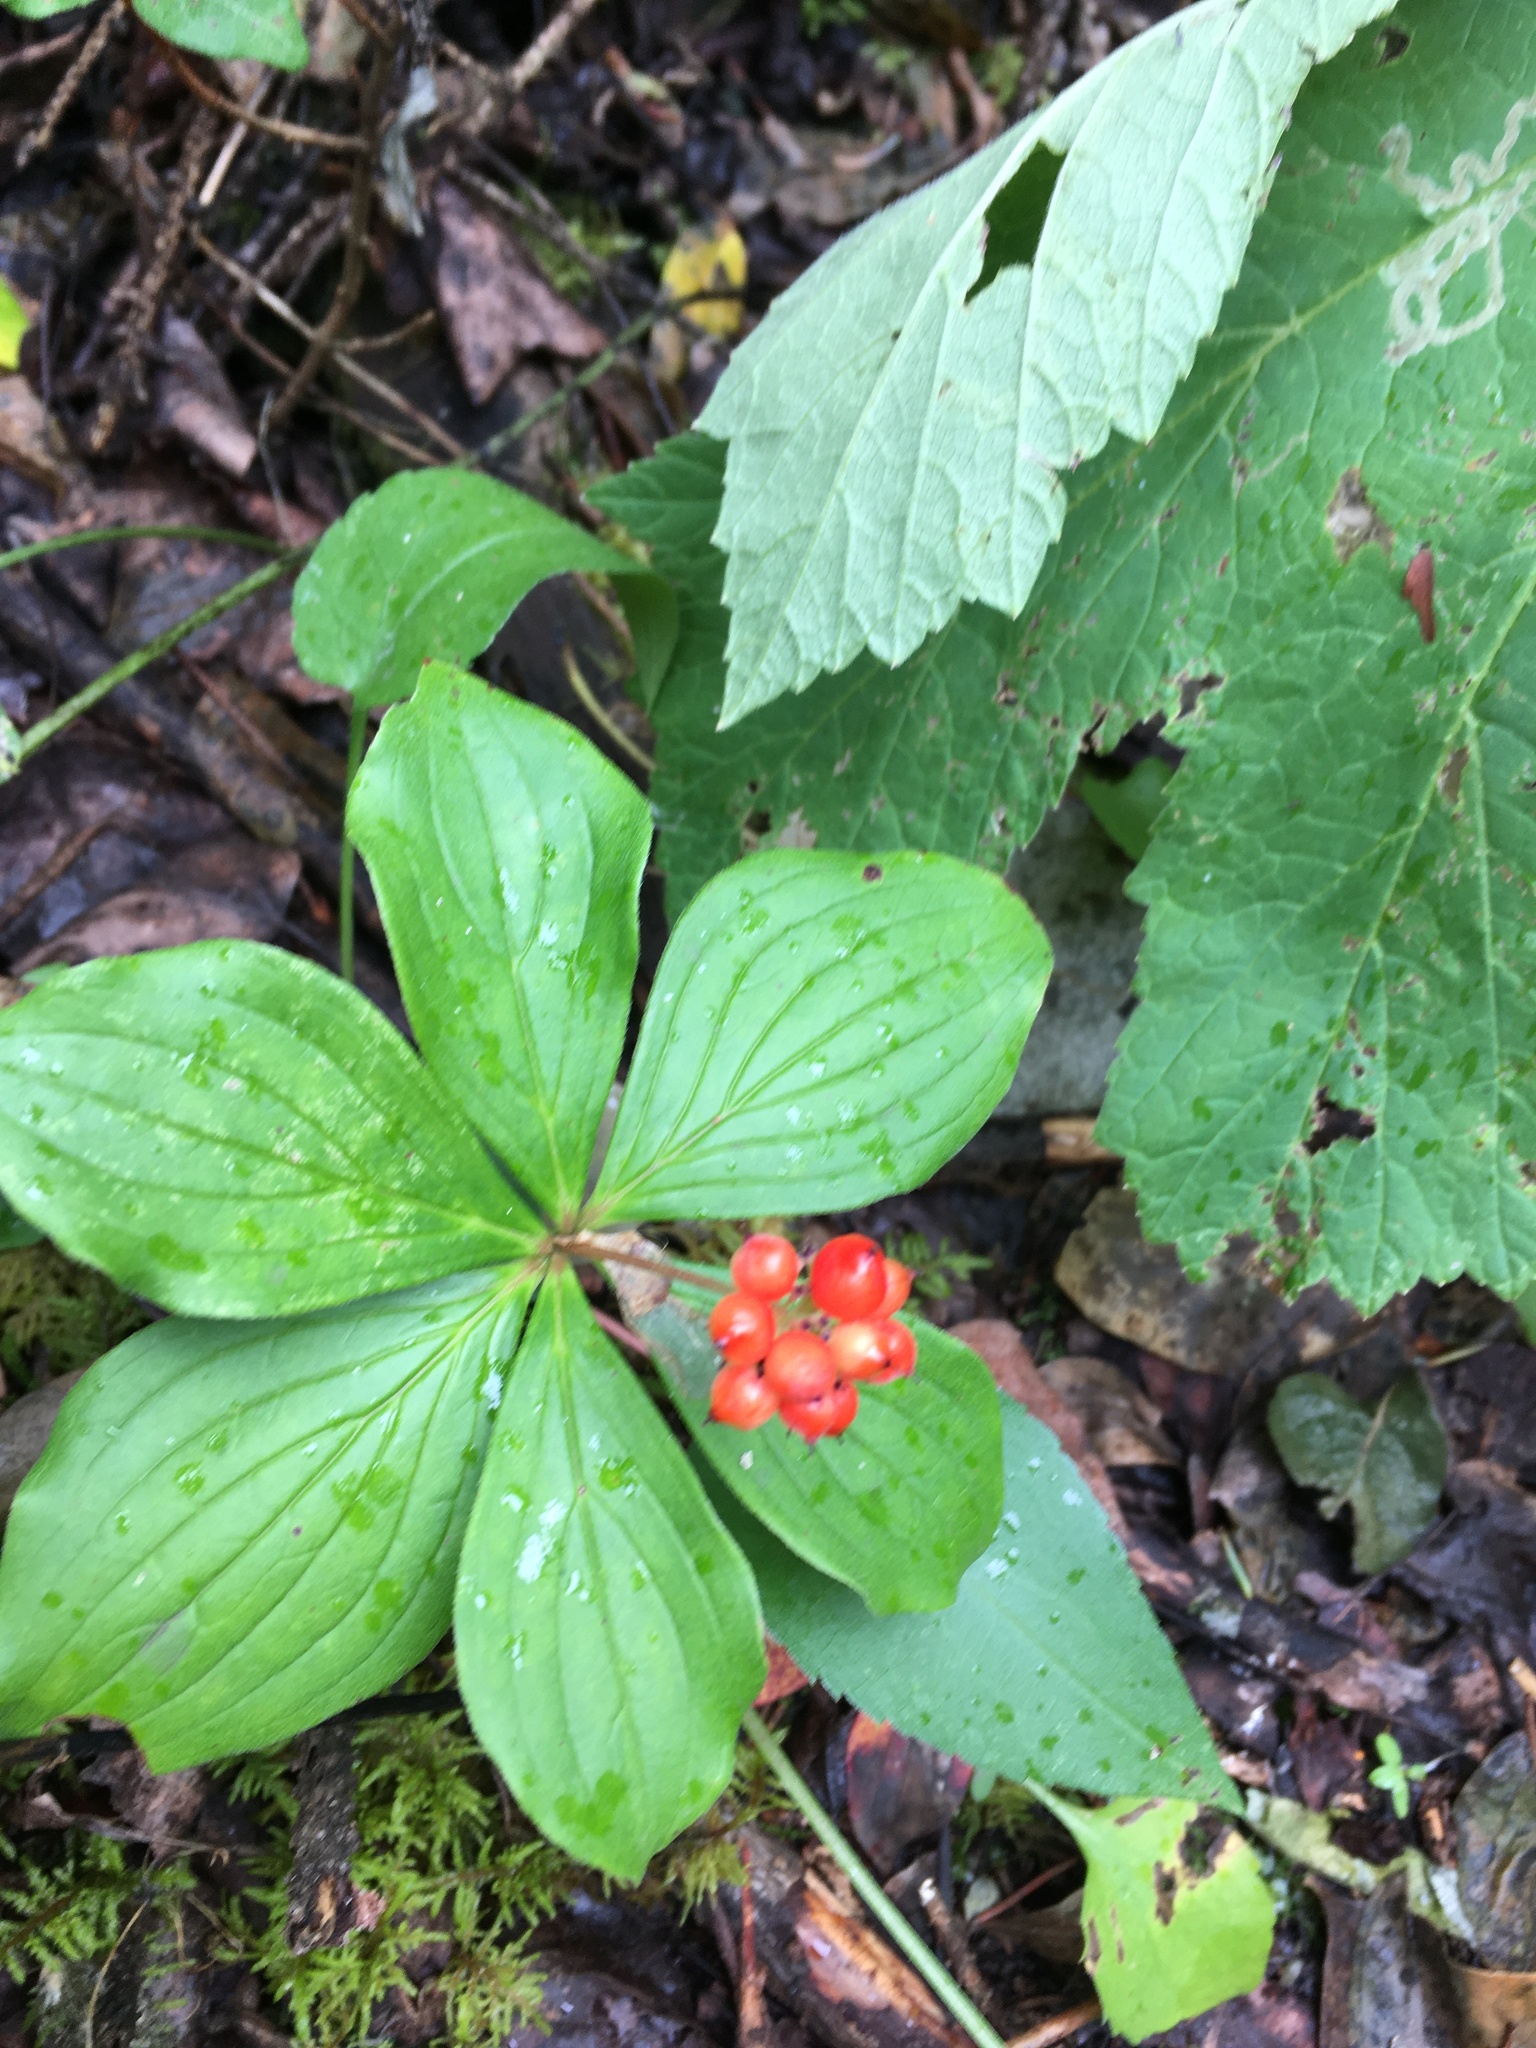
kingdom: Plantae
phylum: Tracheophyta
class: Magnoliopsida
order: Cornales
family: Cornaceae
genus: Cornus
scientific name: Cornus canadensis
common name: Creeping dogwood
